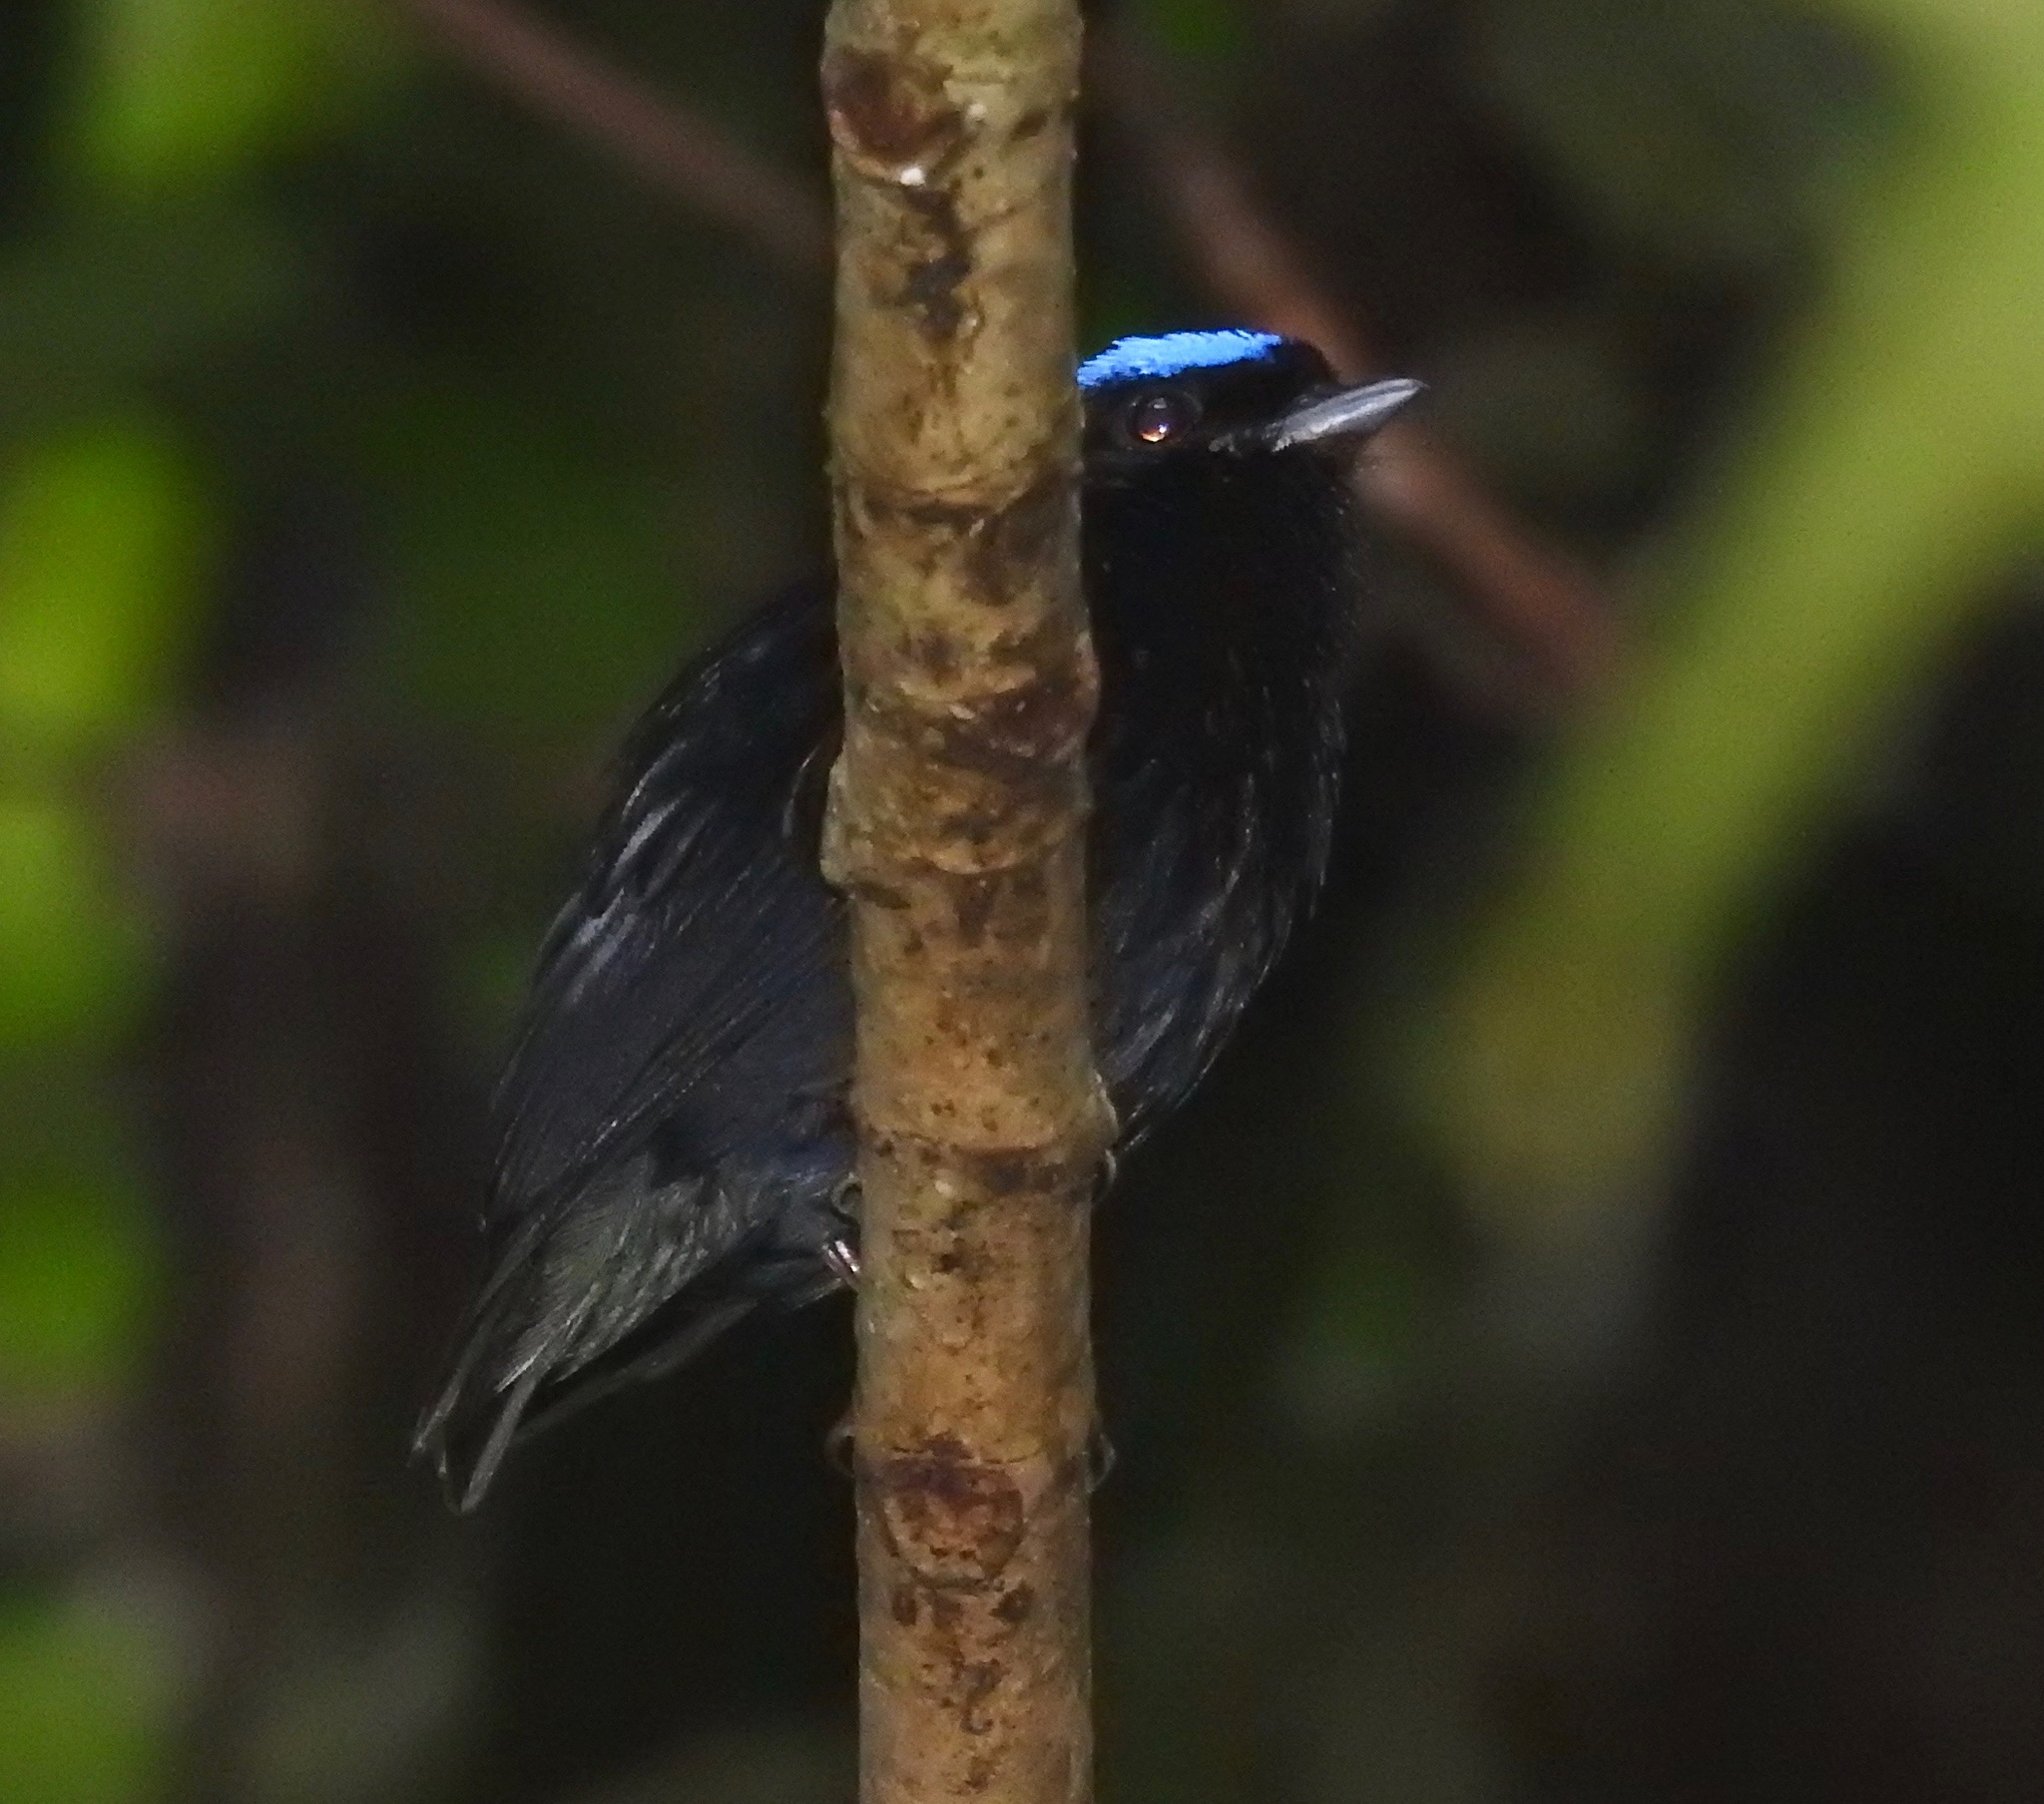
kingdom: Animalia
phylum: Chordata
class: Aves
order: Passeriformes
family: Pipridae
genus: Lepidothrix
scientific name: Lepidothrix coronata
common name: Blue-crowned manakin
